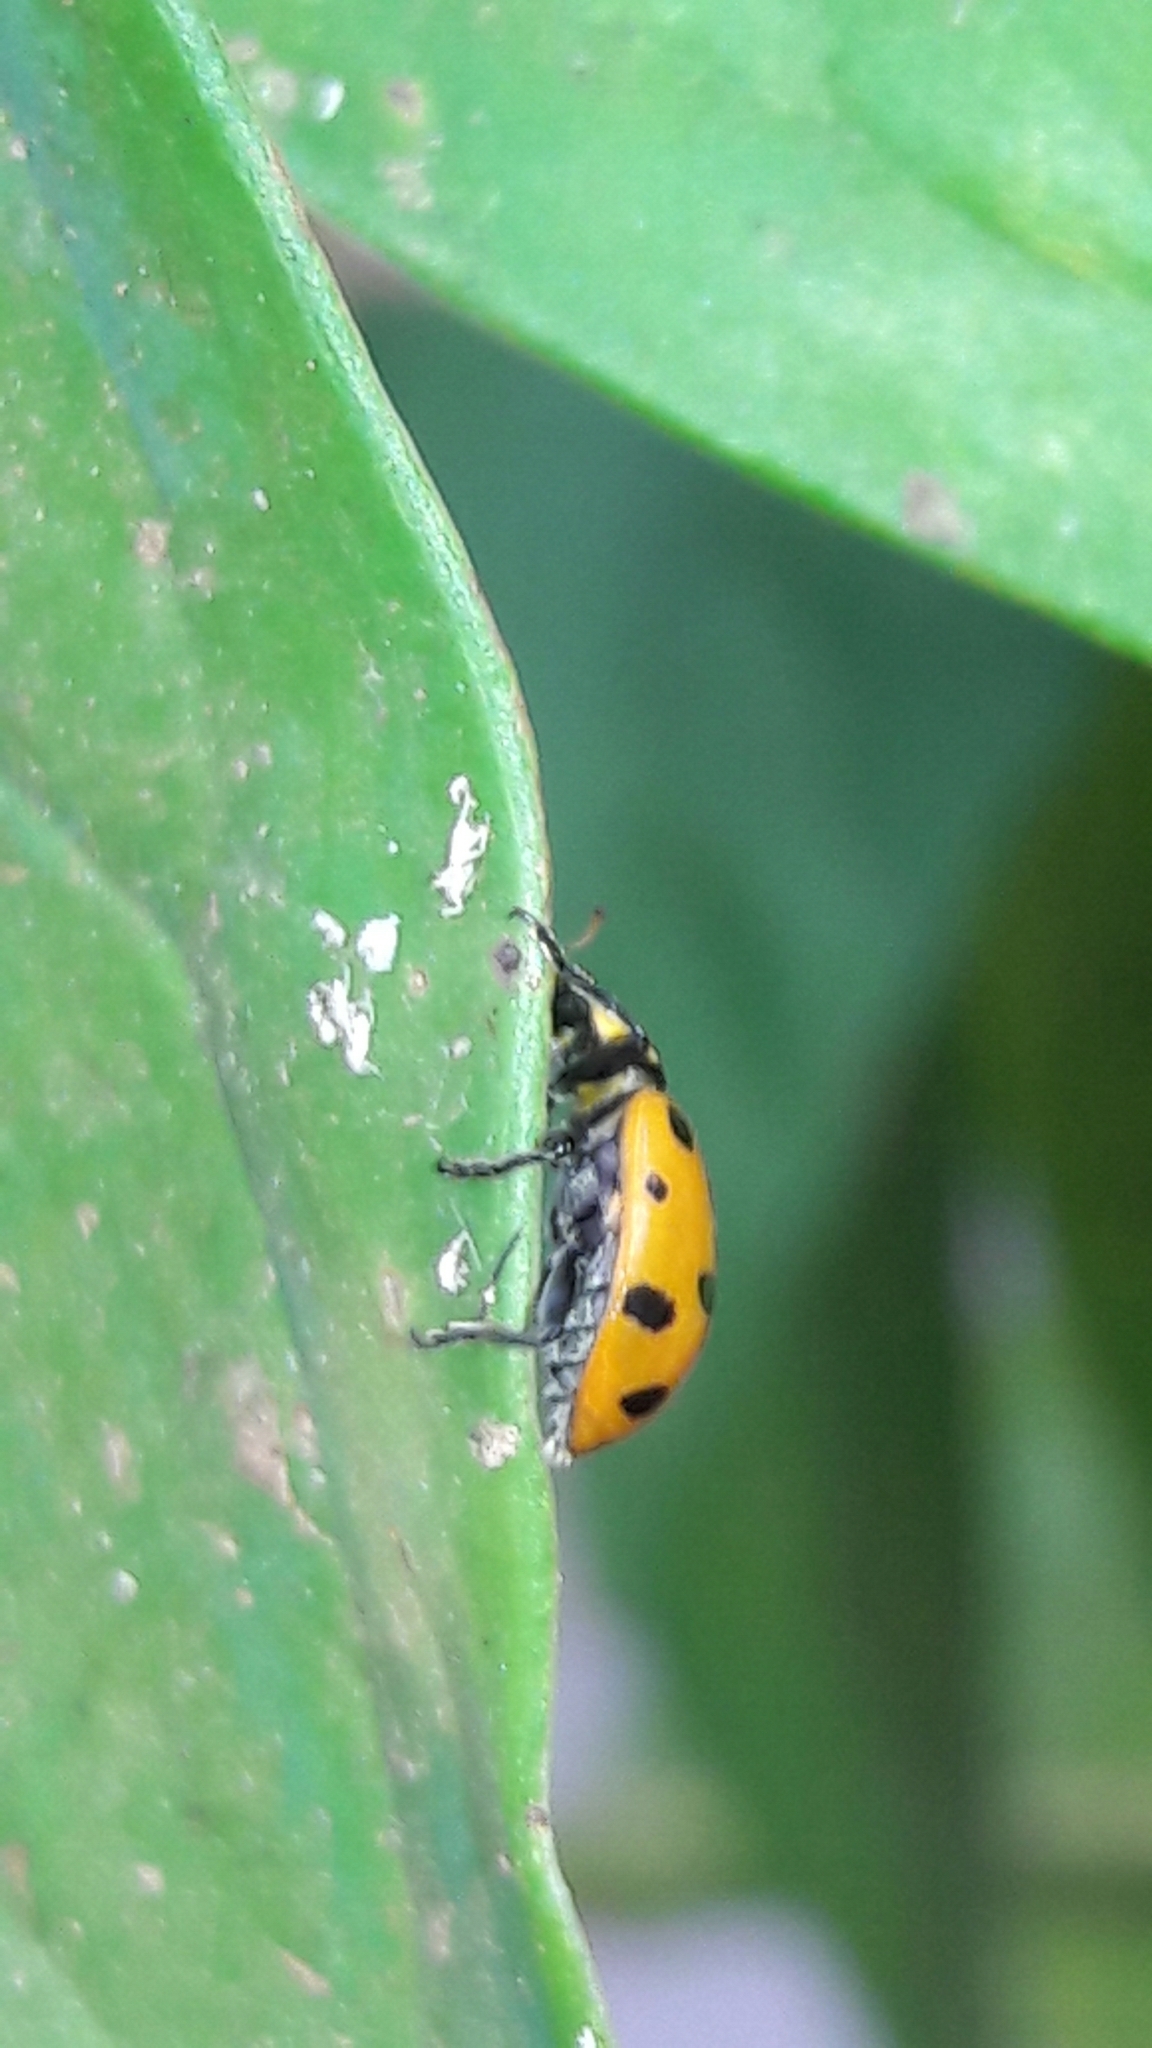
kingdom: Animalia
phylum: Arthropoda
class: Insecta
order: Coleoptera
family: Coccinellidae
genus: Hippodamia
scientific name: Hippodamia convergens
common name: Convergent lady beetle
